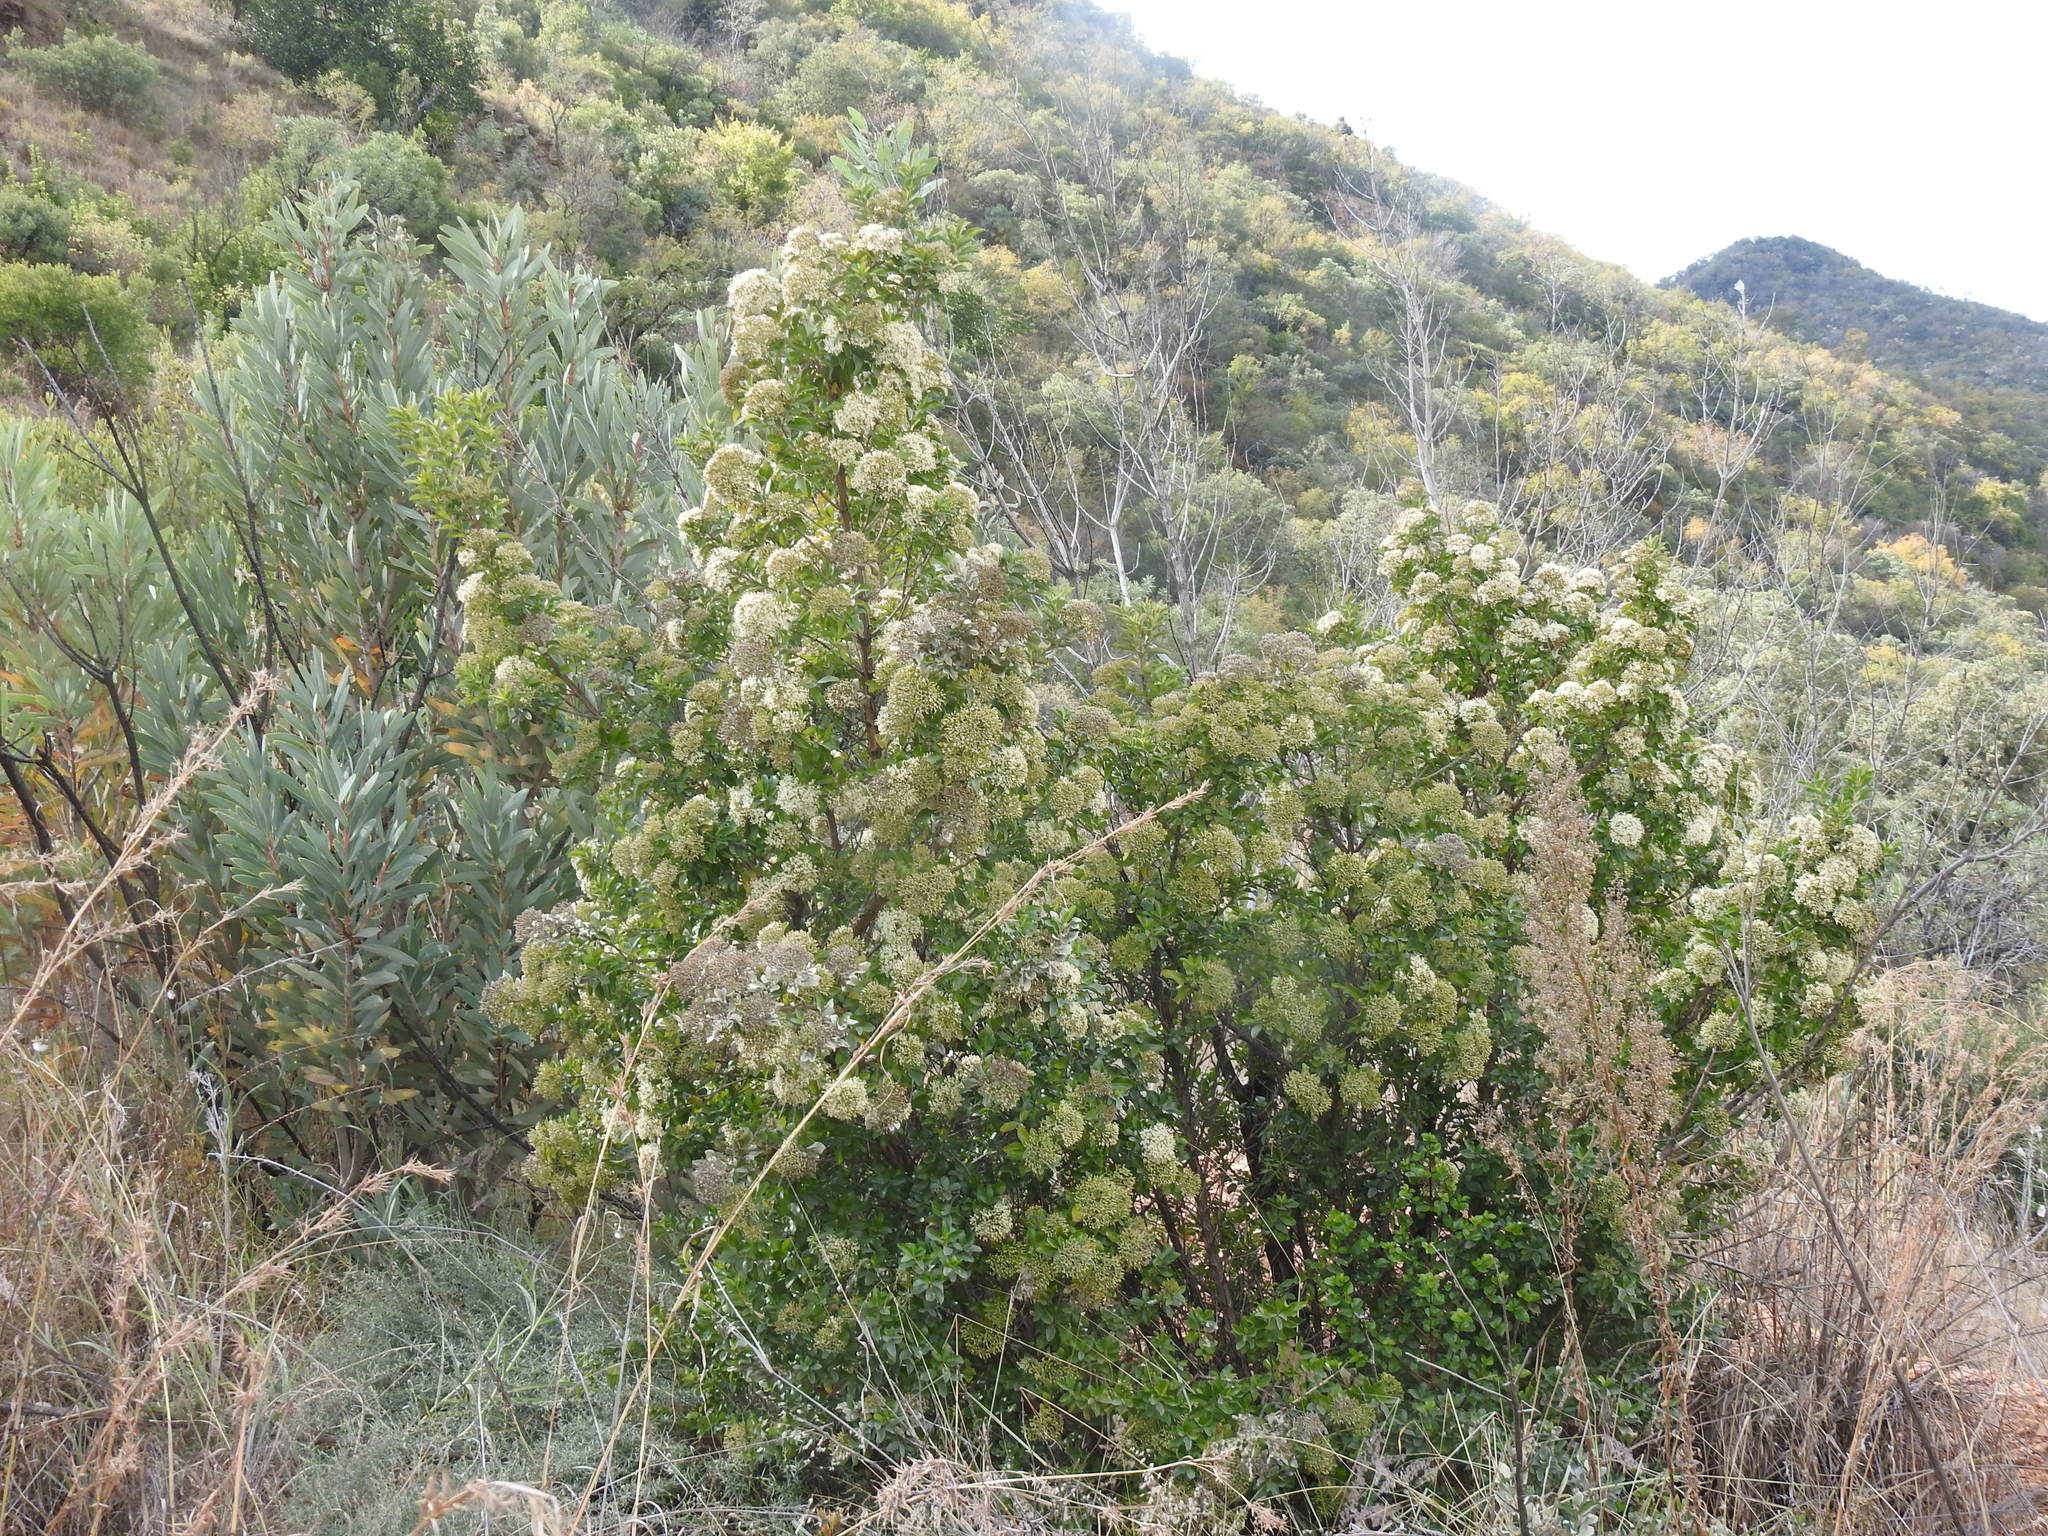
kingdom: Plantae
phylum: Tracheophyta
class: Magnoliopsida
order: Lamiales
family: Stilbaceae
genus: Nuxia
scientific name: Nuxia congesta
